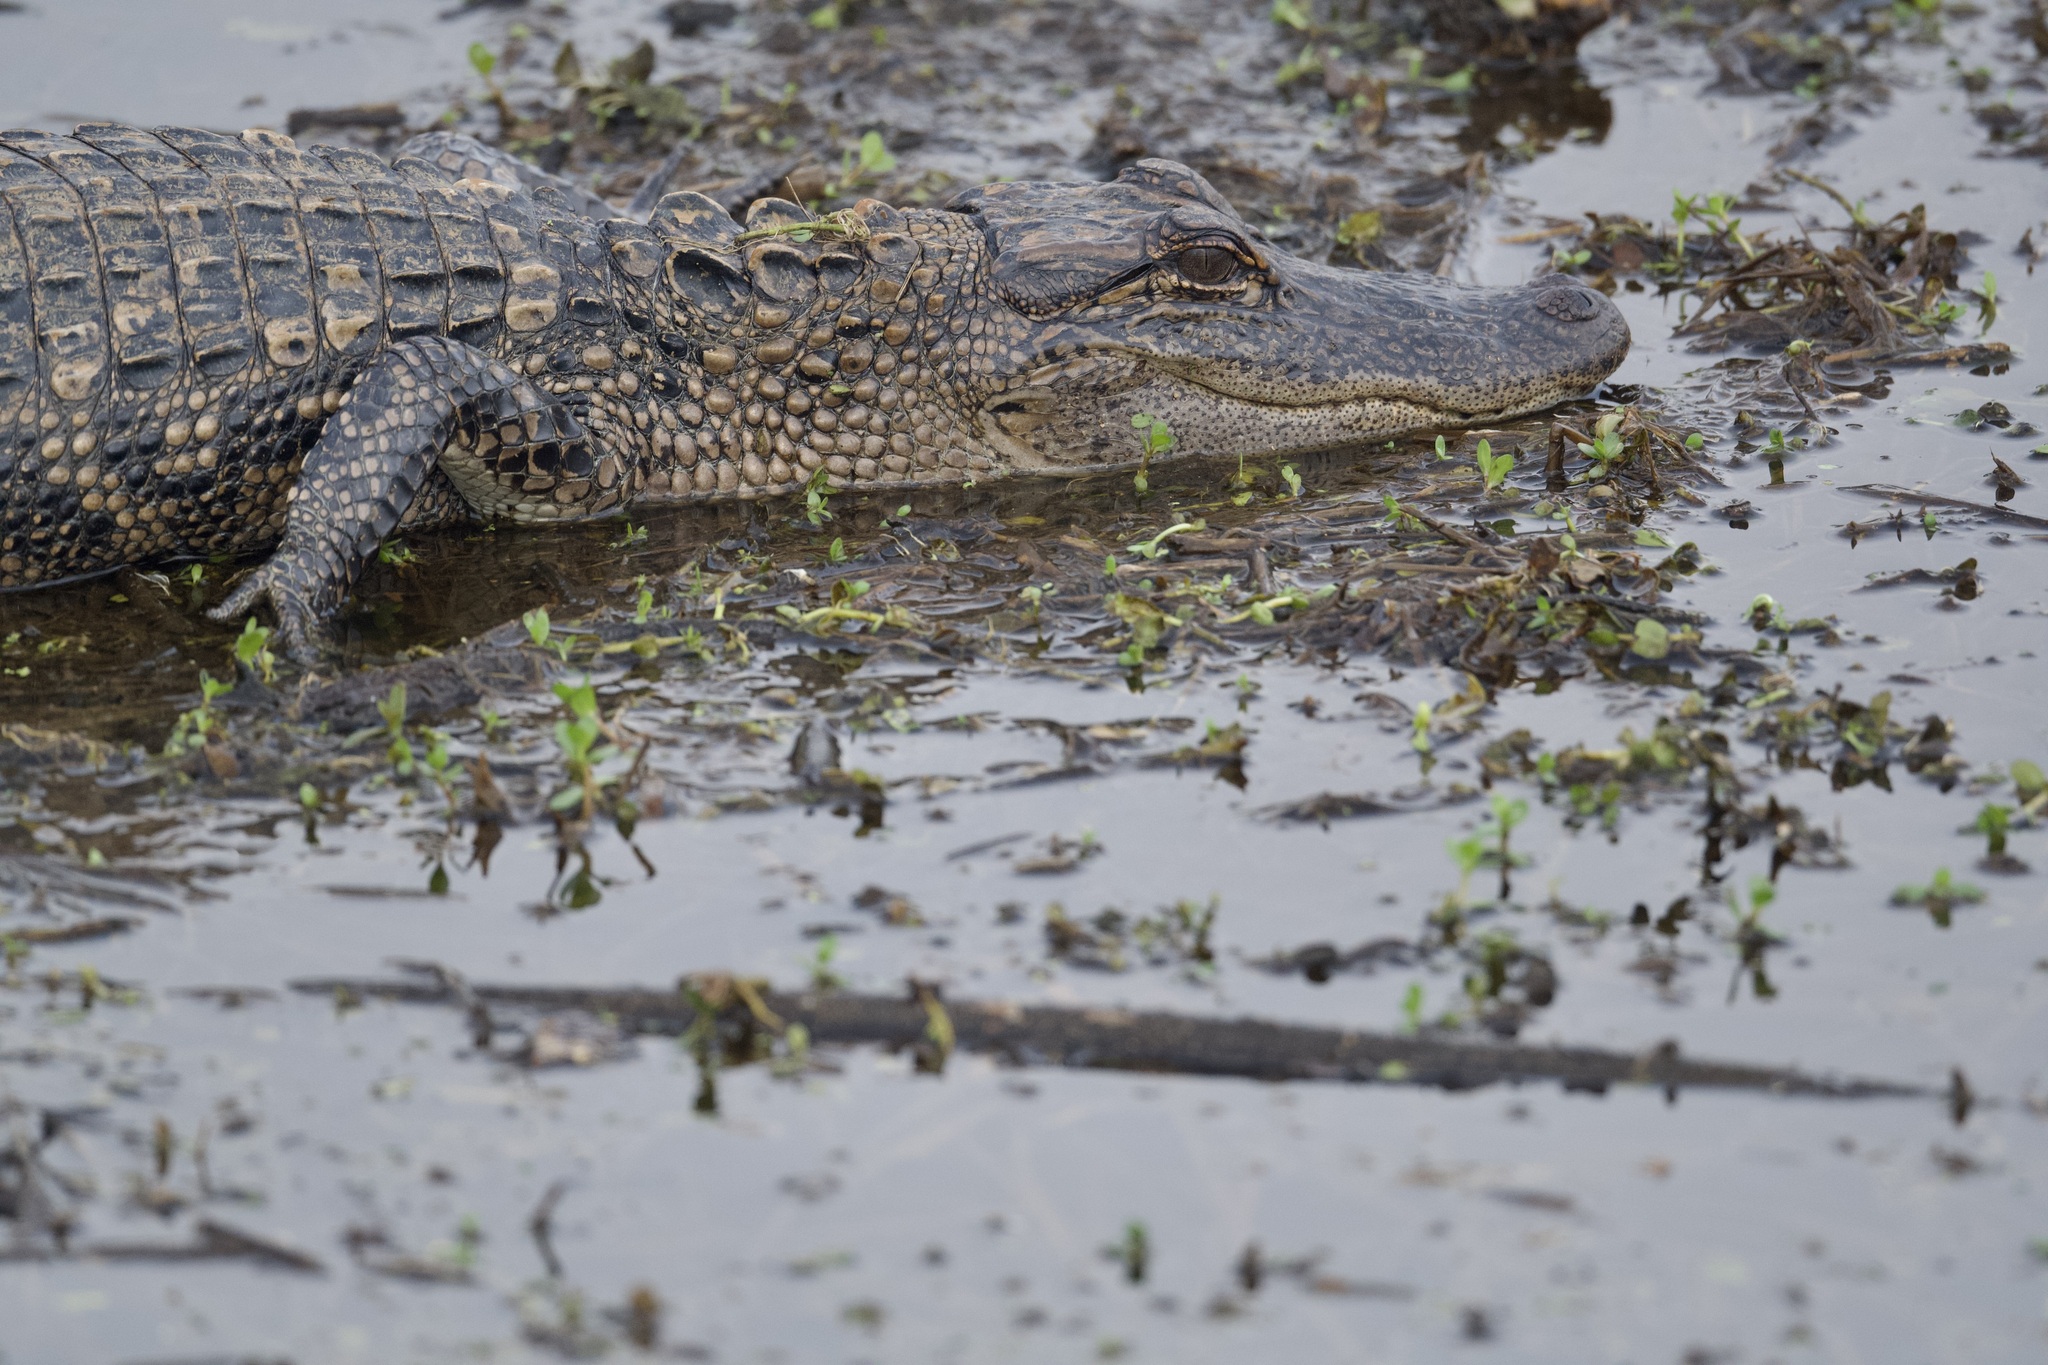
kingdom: Animalia
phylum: Chordata
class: Crocodylia
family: Alligatoridae
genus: Alligator
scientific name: Alligator mississippiensis
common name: American alligator
